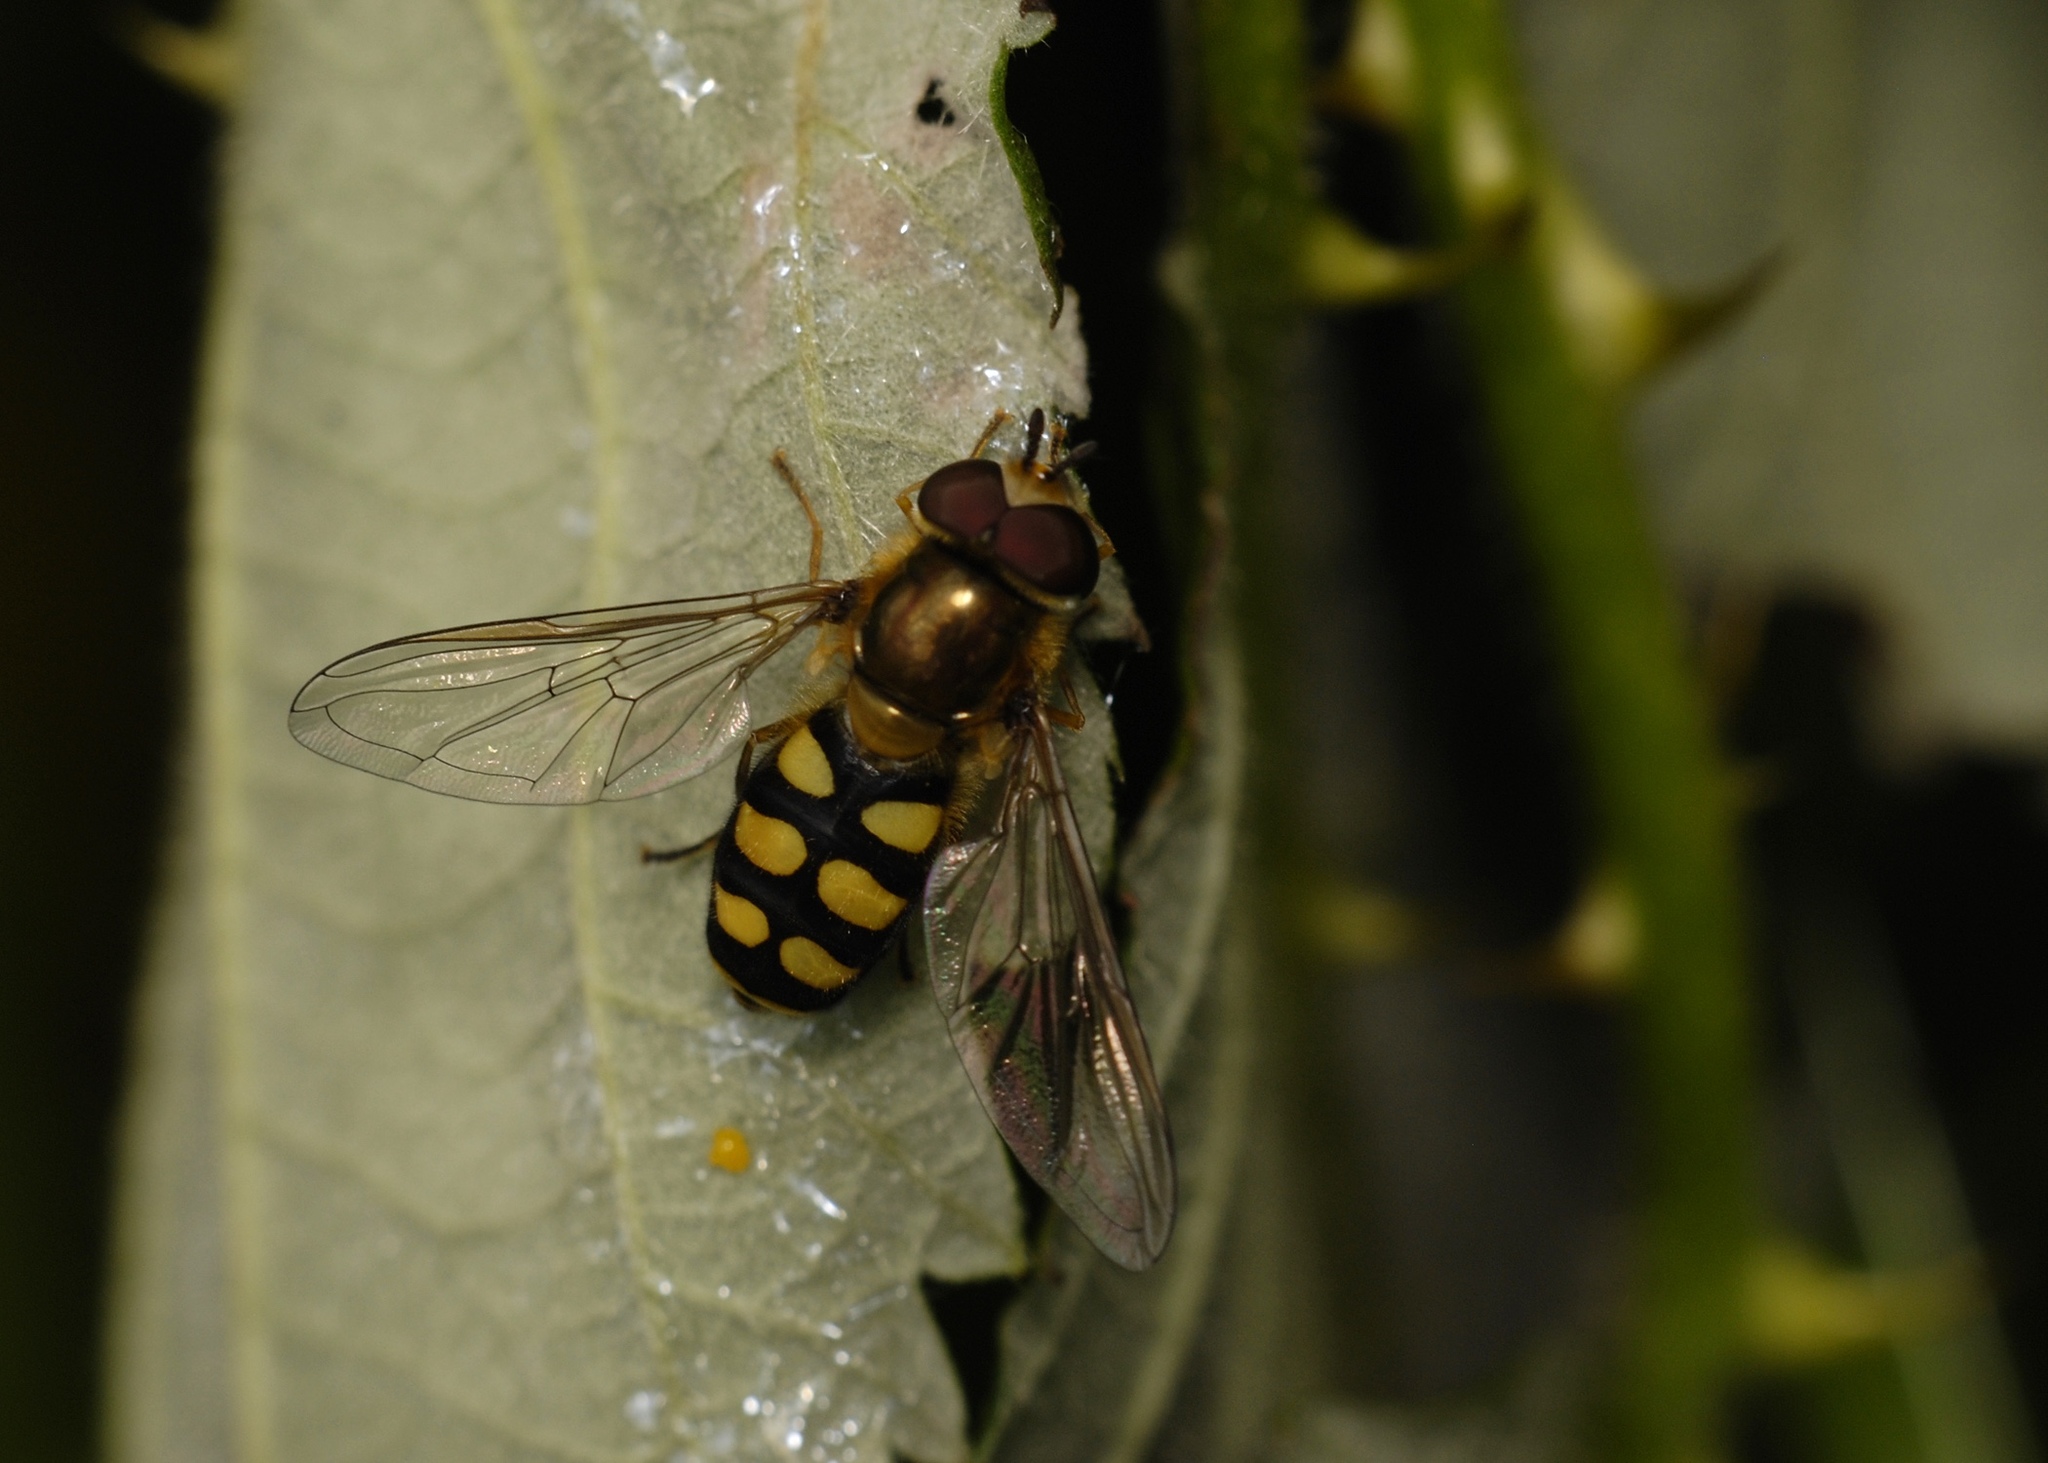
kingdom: Animalia
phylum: Arthropoda
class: Insecta
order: Diptera
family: Syrphidae
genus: Eupeodes
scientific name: Eupeodes
